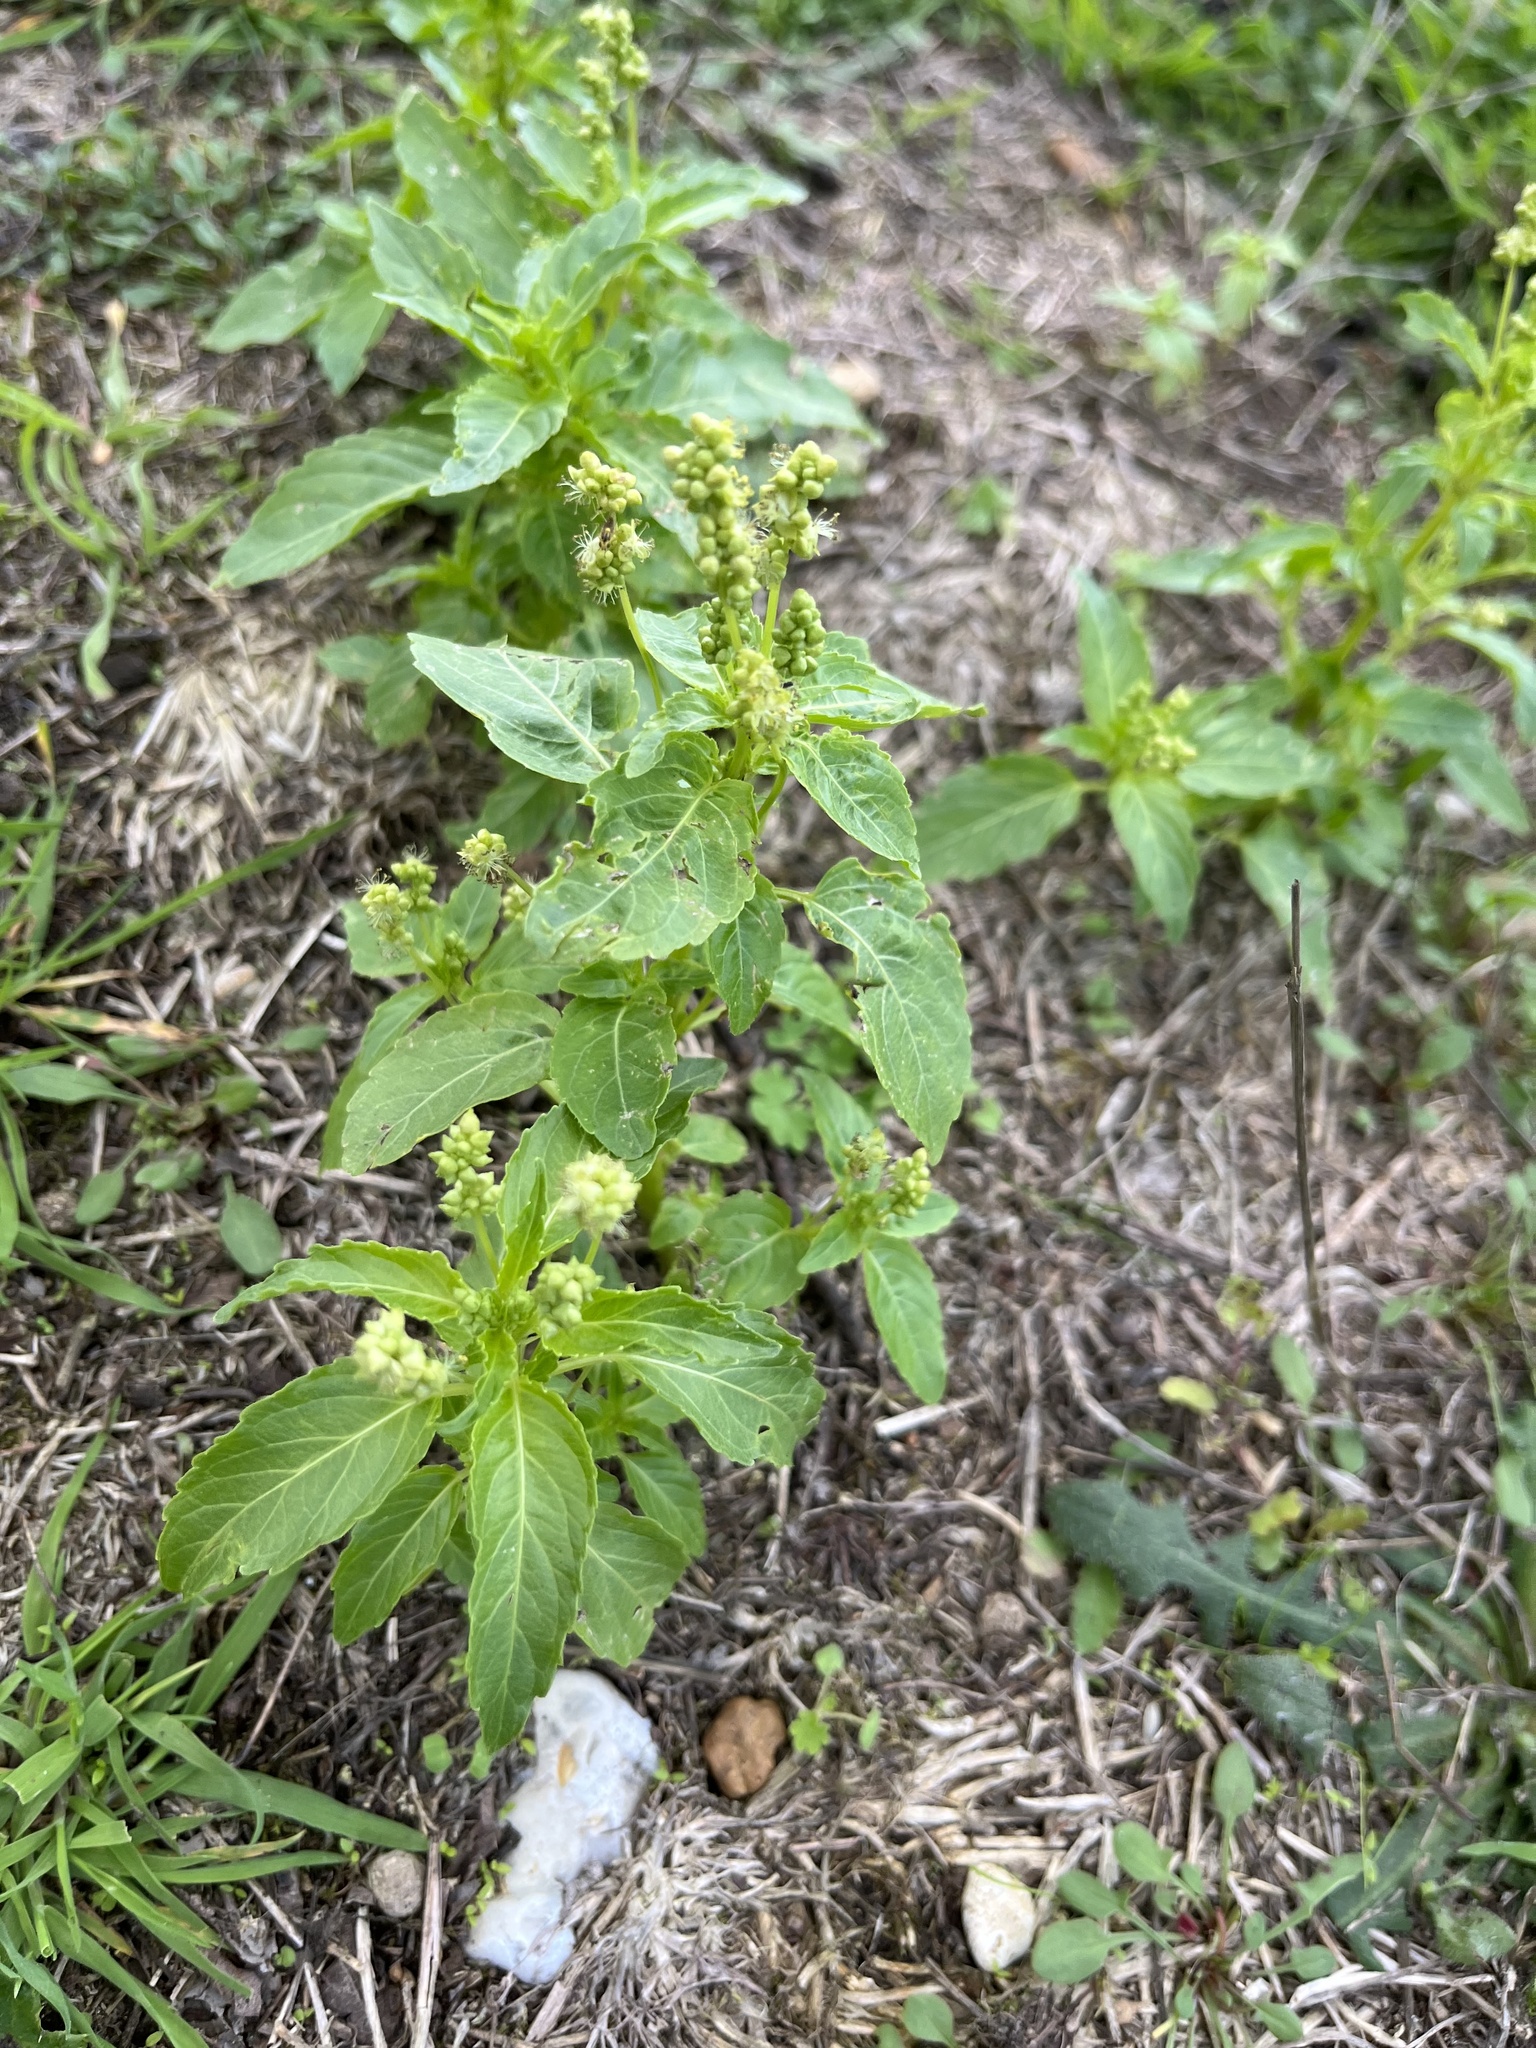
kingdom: Plantae
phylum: Tracheophyta
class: Magnoliopsida
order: Malpighiales
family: Euphorbiaceae
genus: Mercurialis
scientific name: Mercurialis annua
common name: Annual mercury
